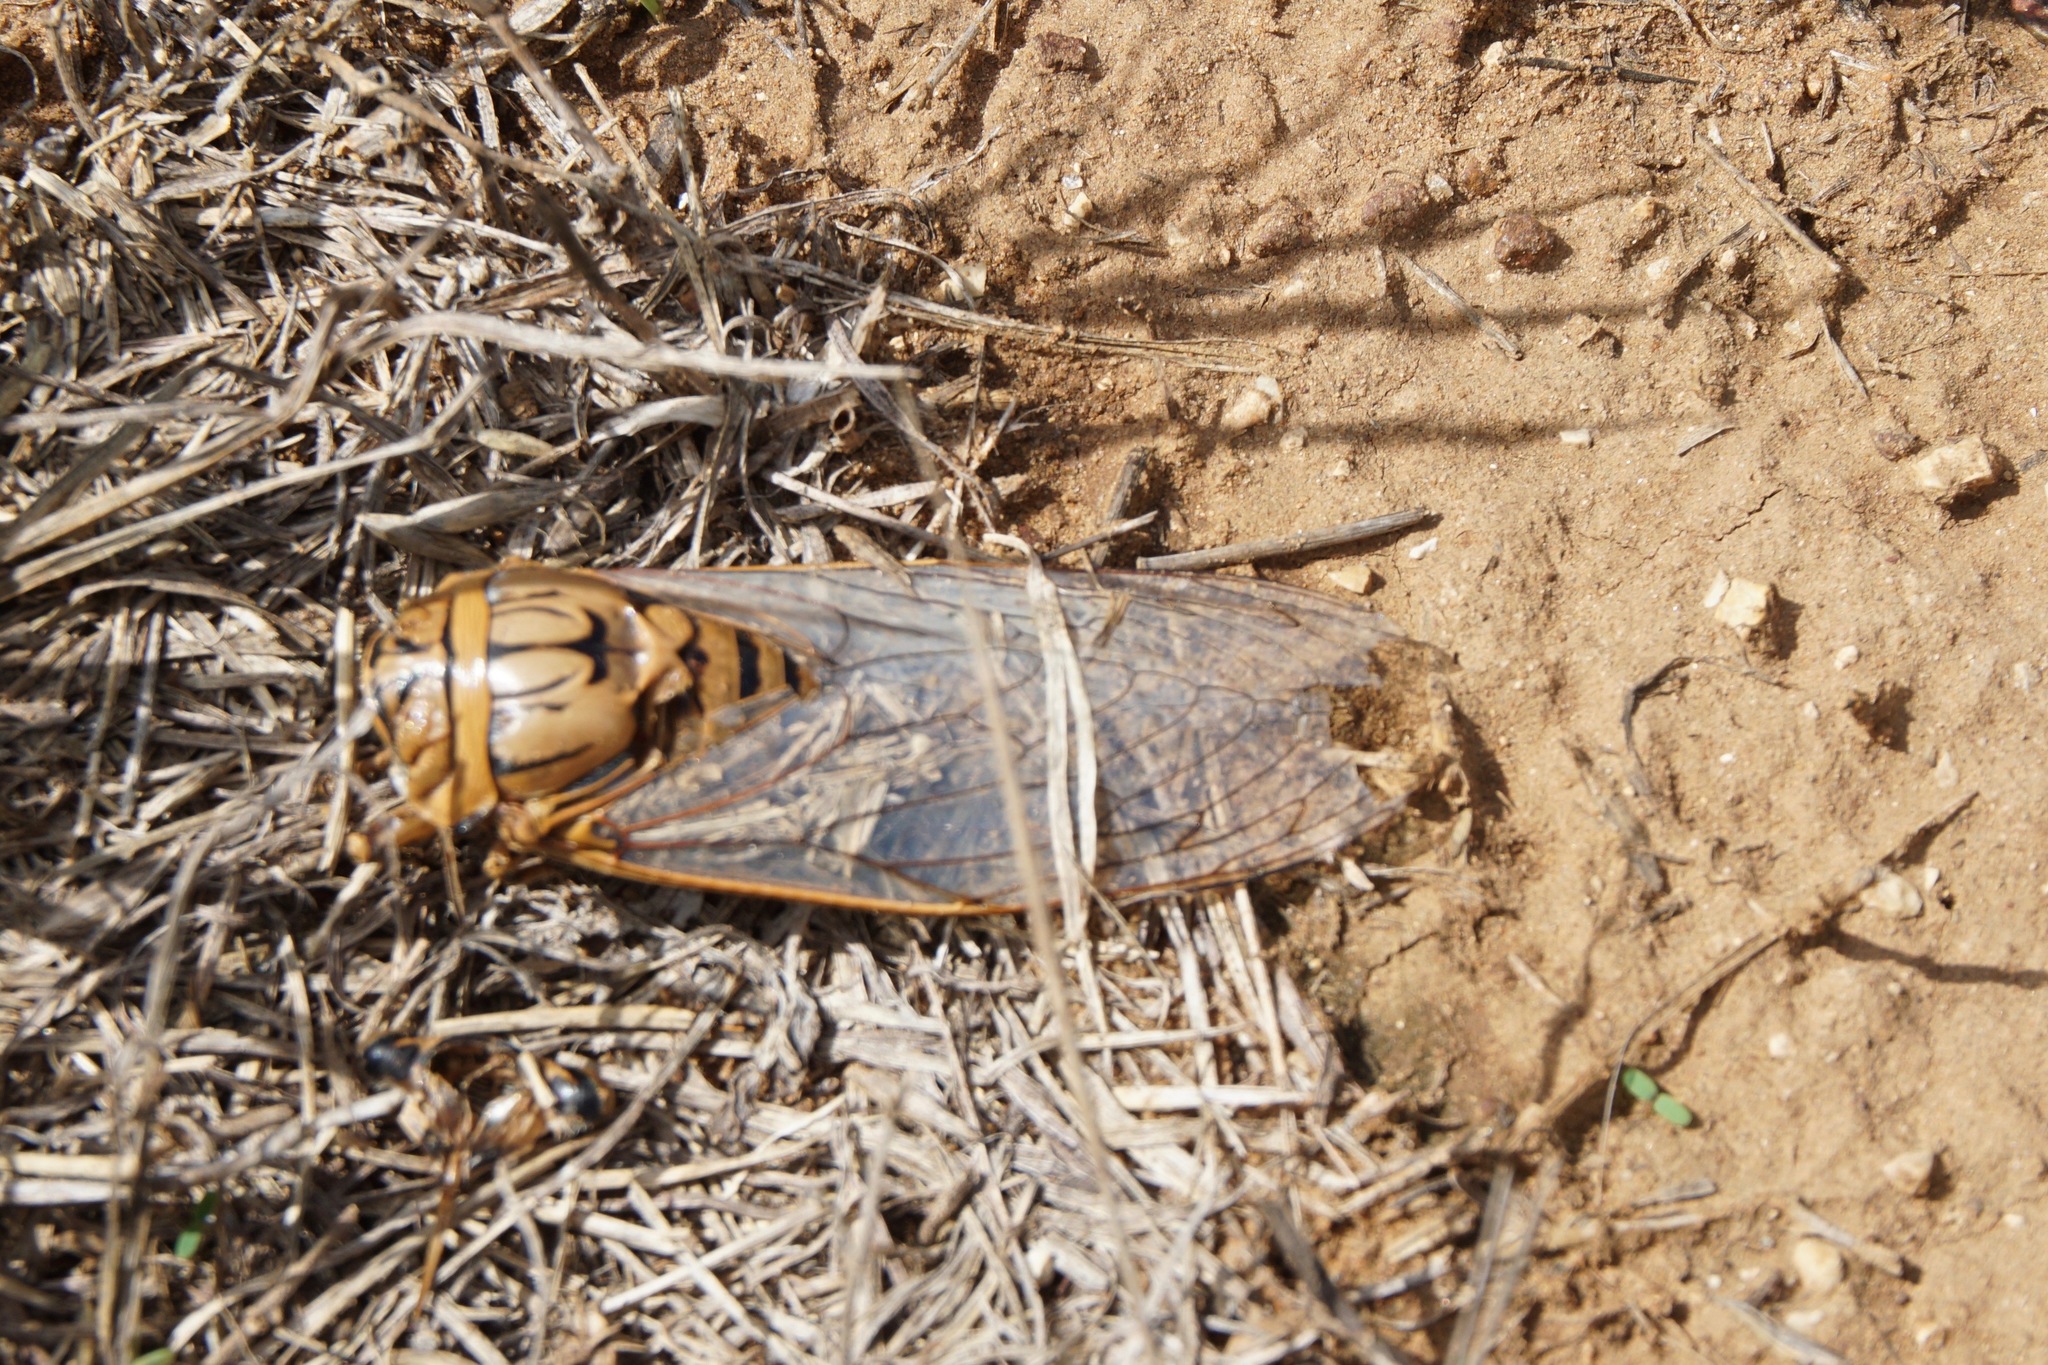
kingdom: Animalia
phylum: Arthropoda
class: Insecta
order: Hemiptera
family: Cicadidae
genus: Quesada
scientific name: Quesada gigas
